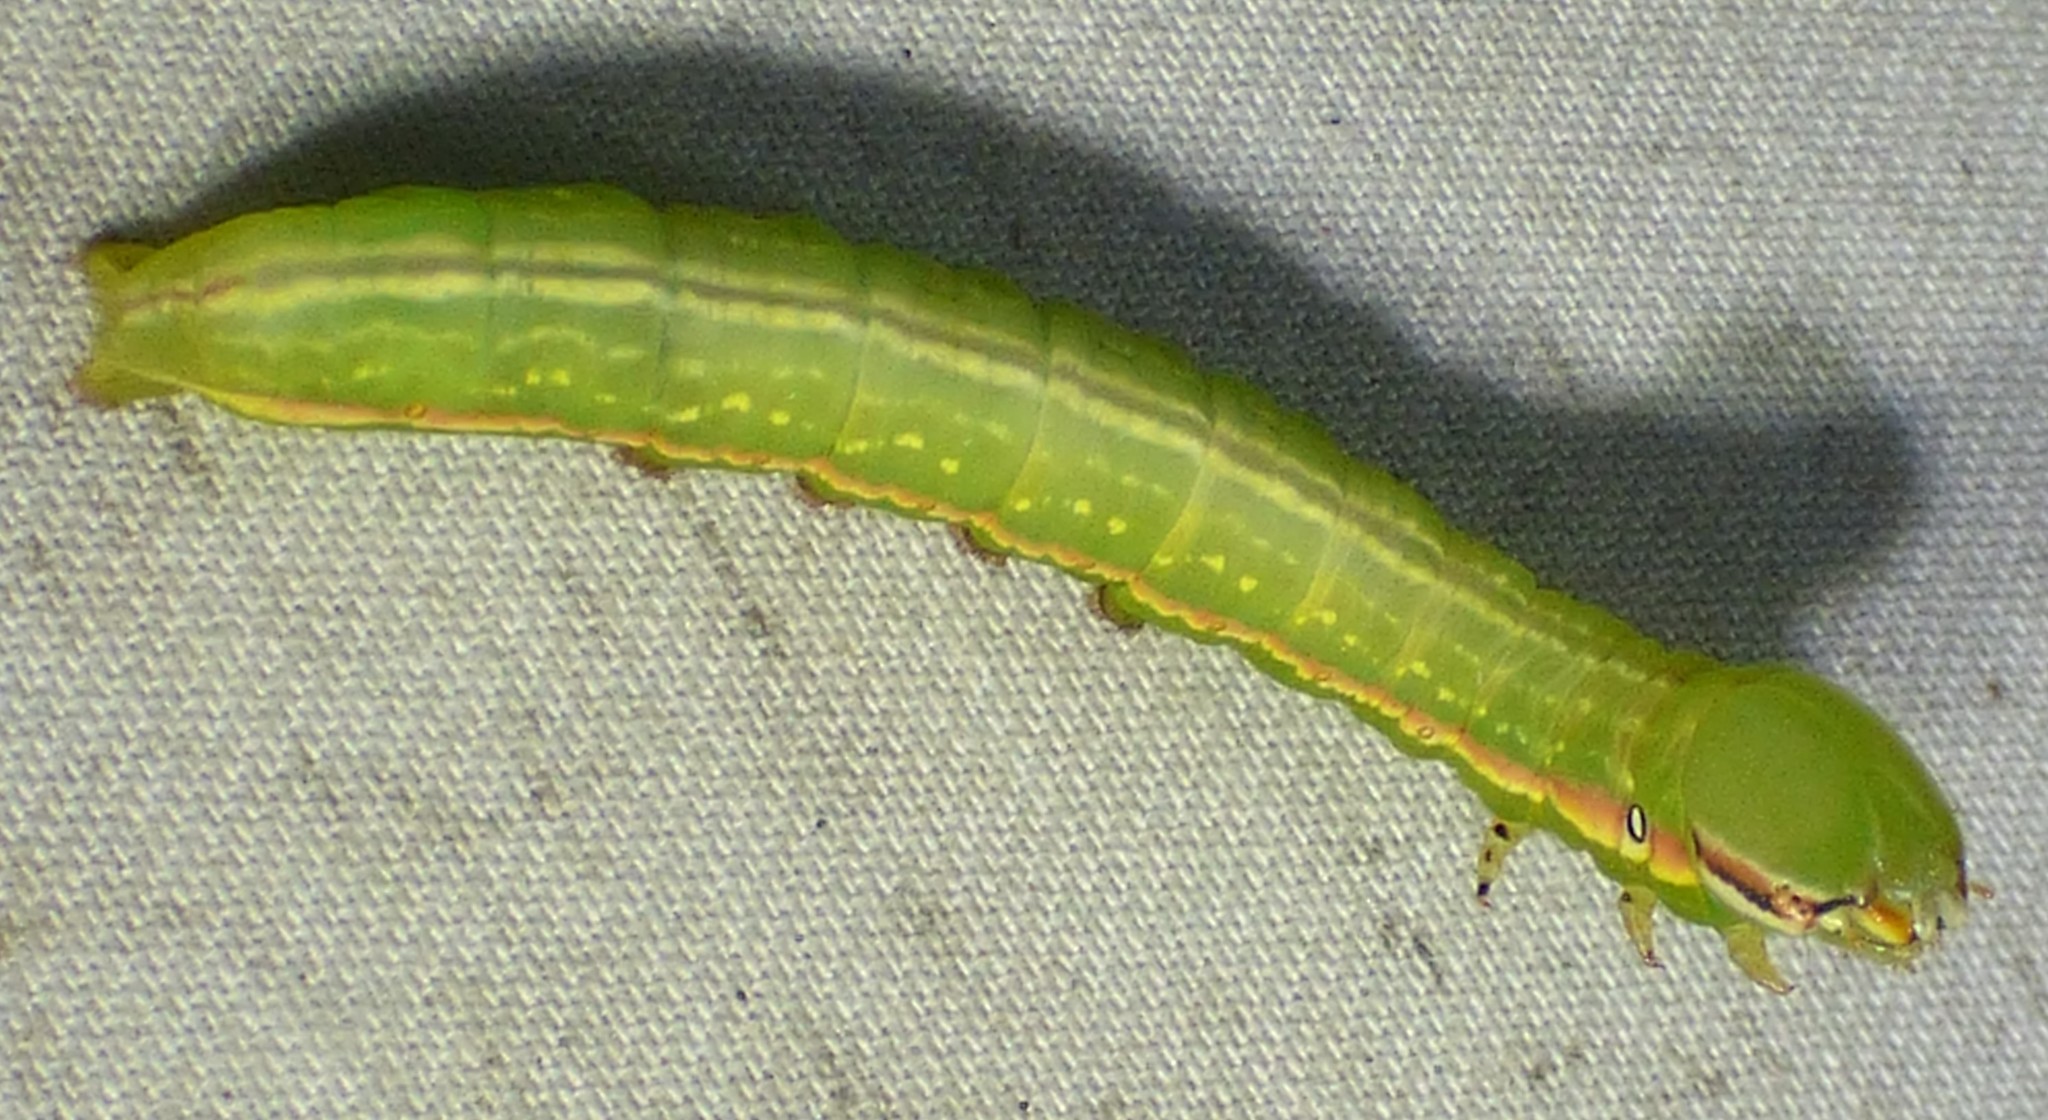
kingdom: Animalia
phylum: Arthropoda
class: Insecta
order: Lepidoptera
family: Notodontidae
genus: Peridea
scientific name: Peridea angulosa
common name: Angulose prominent
